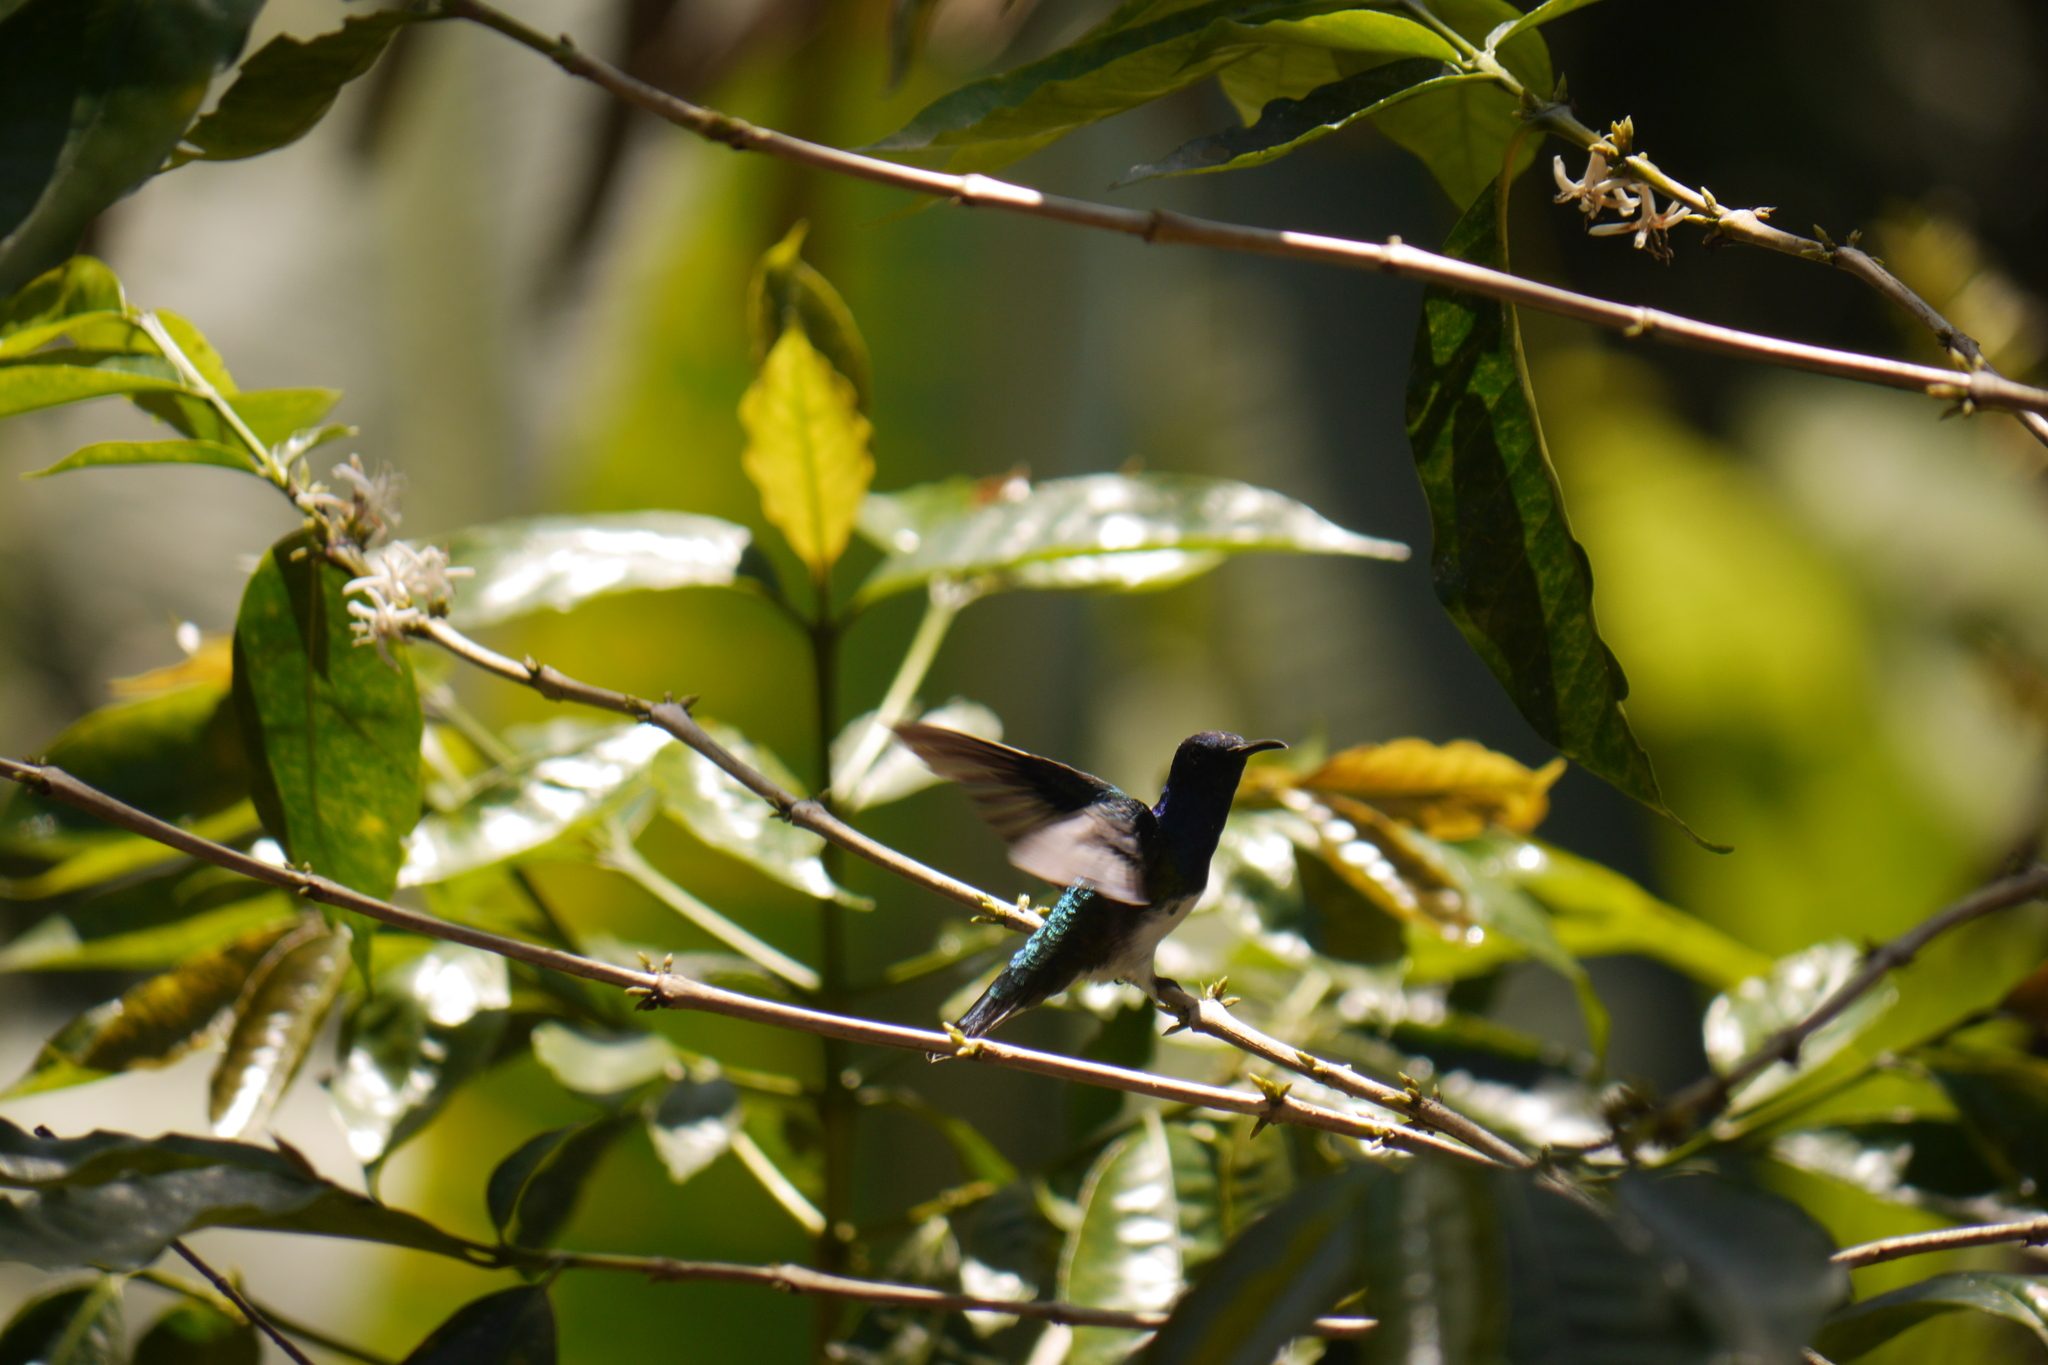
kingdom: Animalia
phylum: Chordata
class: Aves
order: Apodiformes
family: Trochilidae
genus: Florisuga
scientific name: Florisuga mellivora
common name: White-necked jacobin
